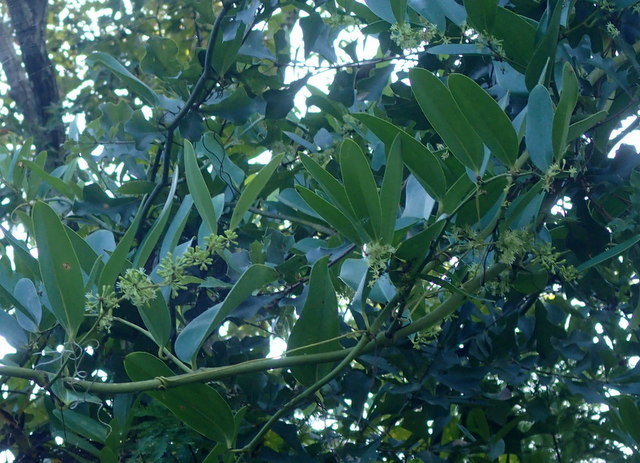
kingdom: Plantae
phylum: Tracheophyta
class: Liliopsida
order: Liliales
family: Smilacaceae
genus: Smilax
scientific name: Smilax laurifolia
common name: Bamboovine
